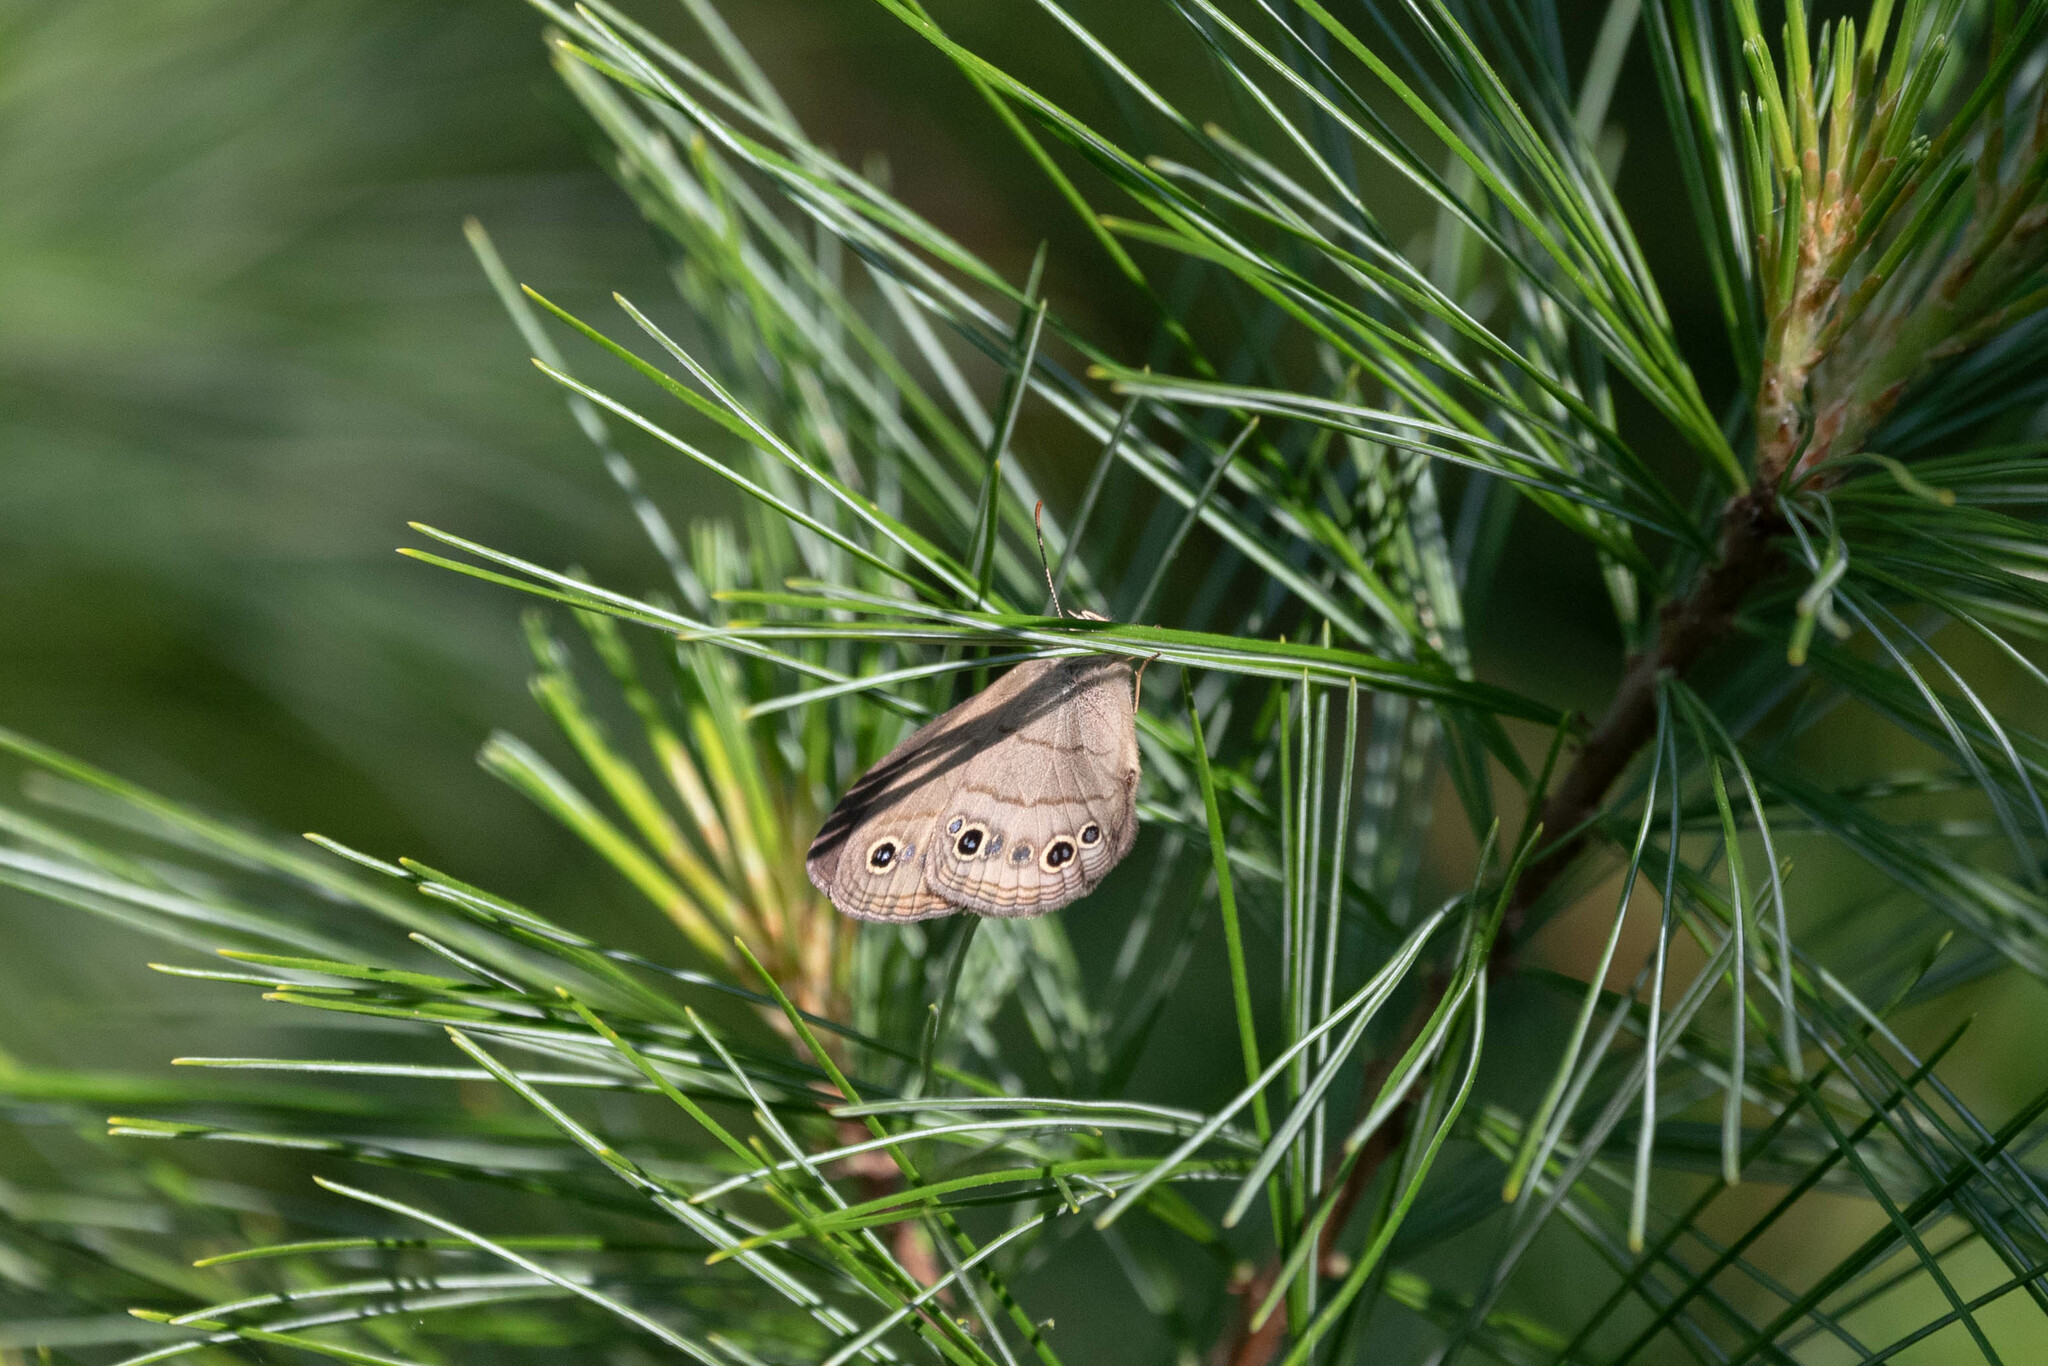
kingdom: Animalia
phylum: Arthropoda
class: Insecta
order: Lepidoptera
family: Nymphalidae
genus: Euptychia
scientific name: Euptychia cymela
